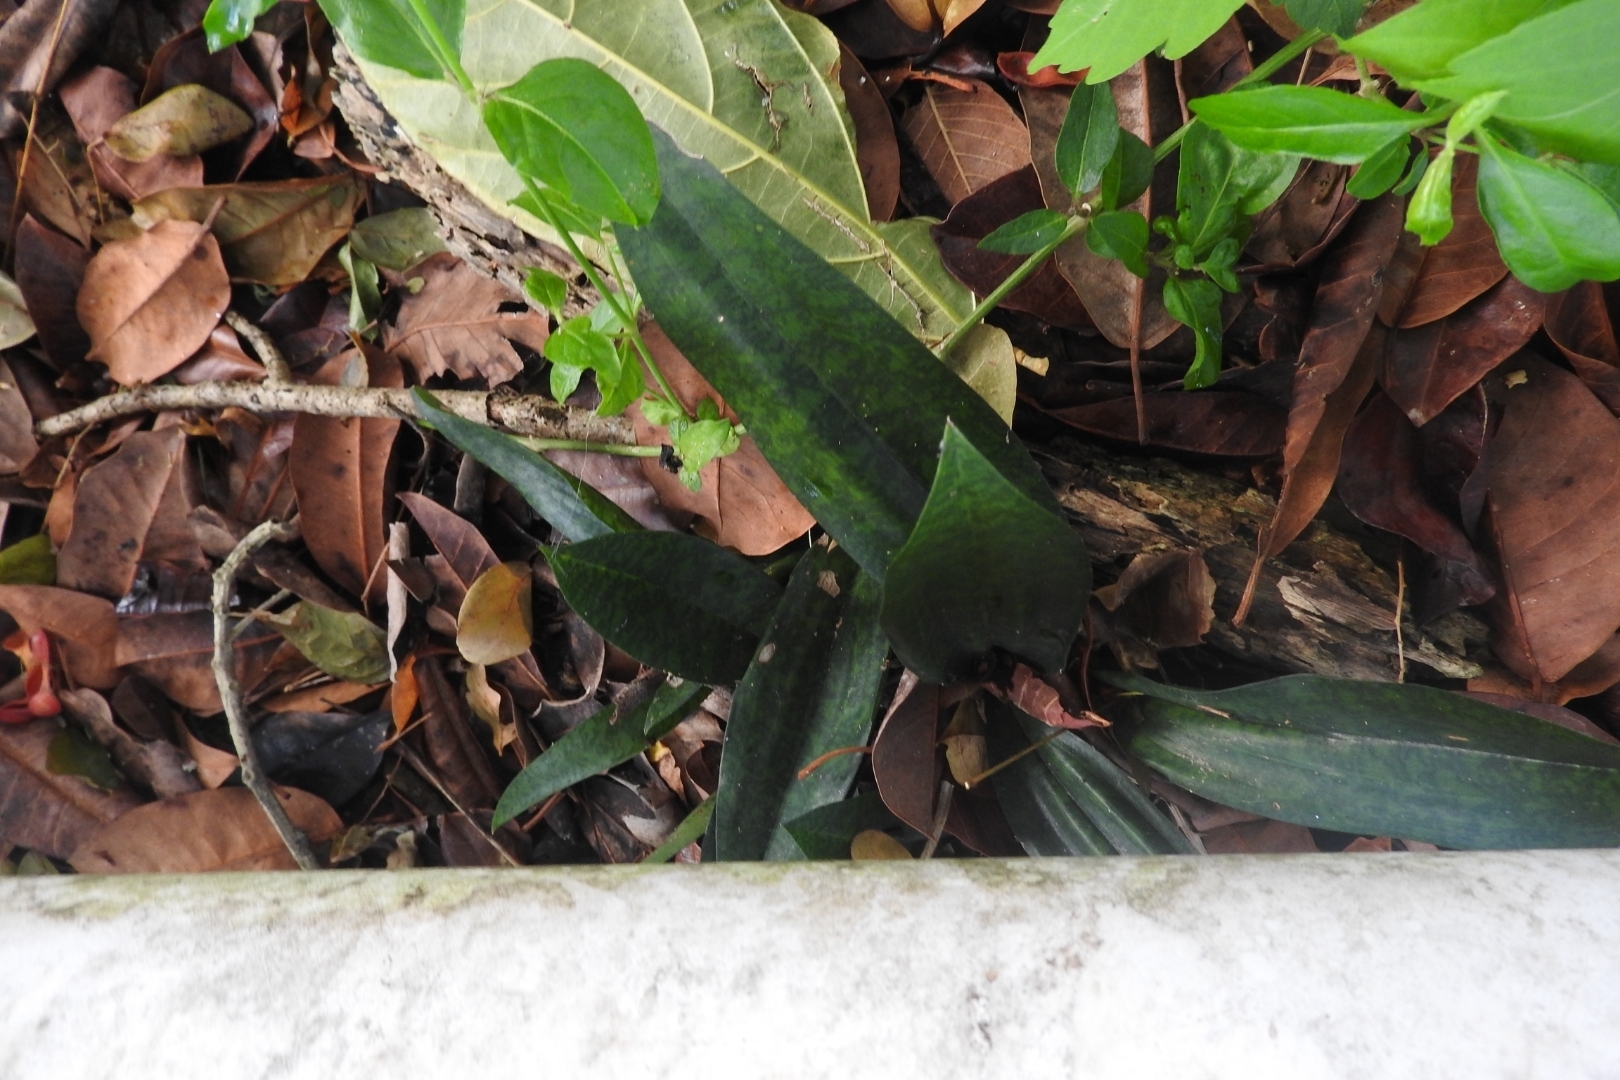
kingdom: Plantae
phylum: Tracheophyta
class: Liliopsida
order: Asparagales
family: Asparagaceae
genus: Dracaena
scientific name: Dracaena hyacinthoides
